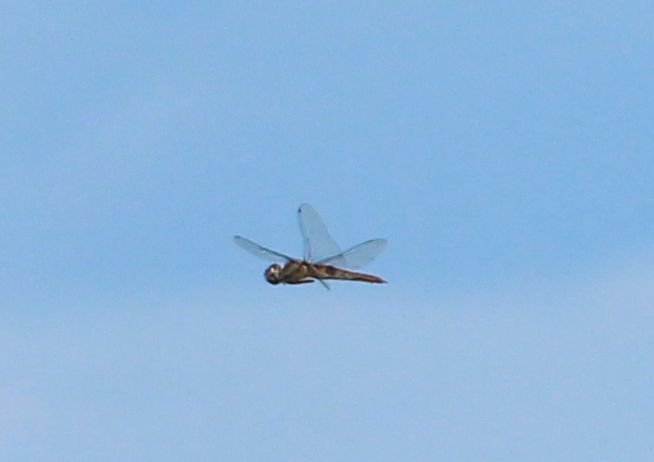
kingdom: Animalia
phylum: Arthropoda
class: Insecta
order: Odonata
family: Libellulidae
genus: Pantala
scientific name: Pantala hymenaea
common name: Spot-winged glider
